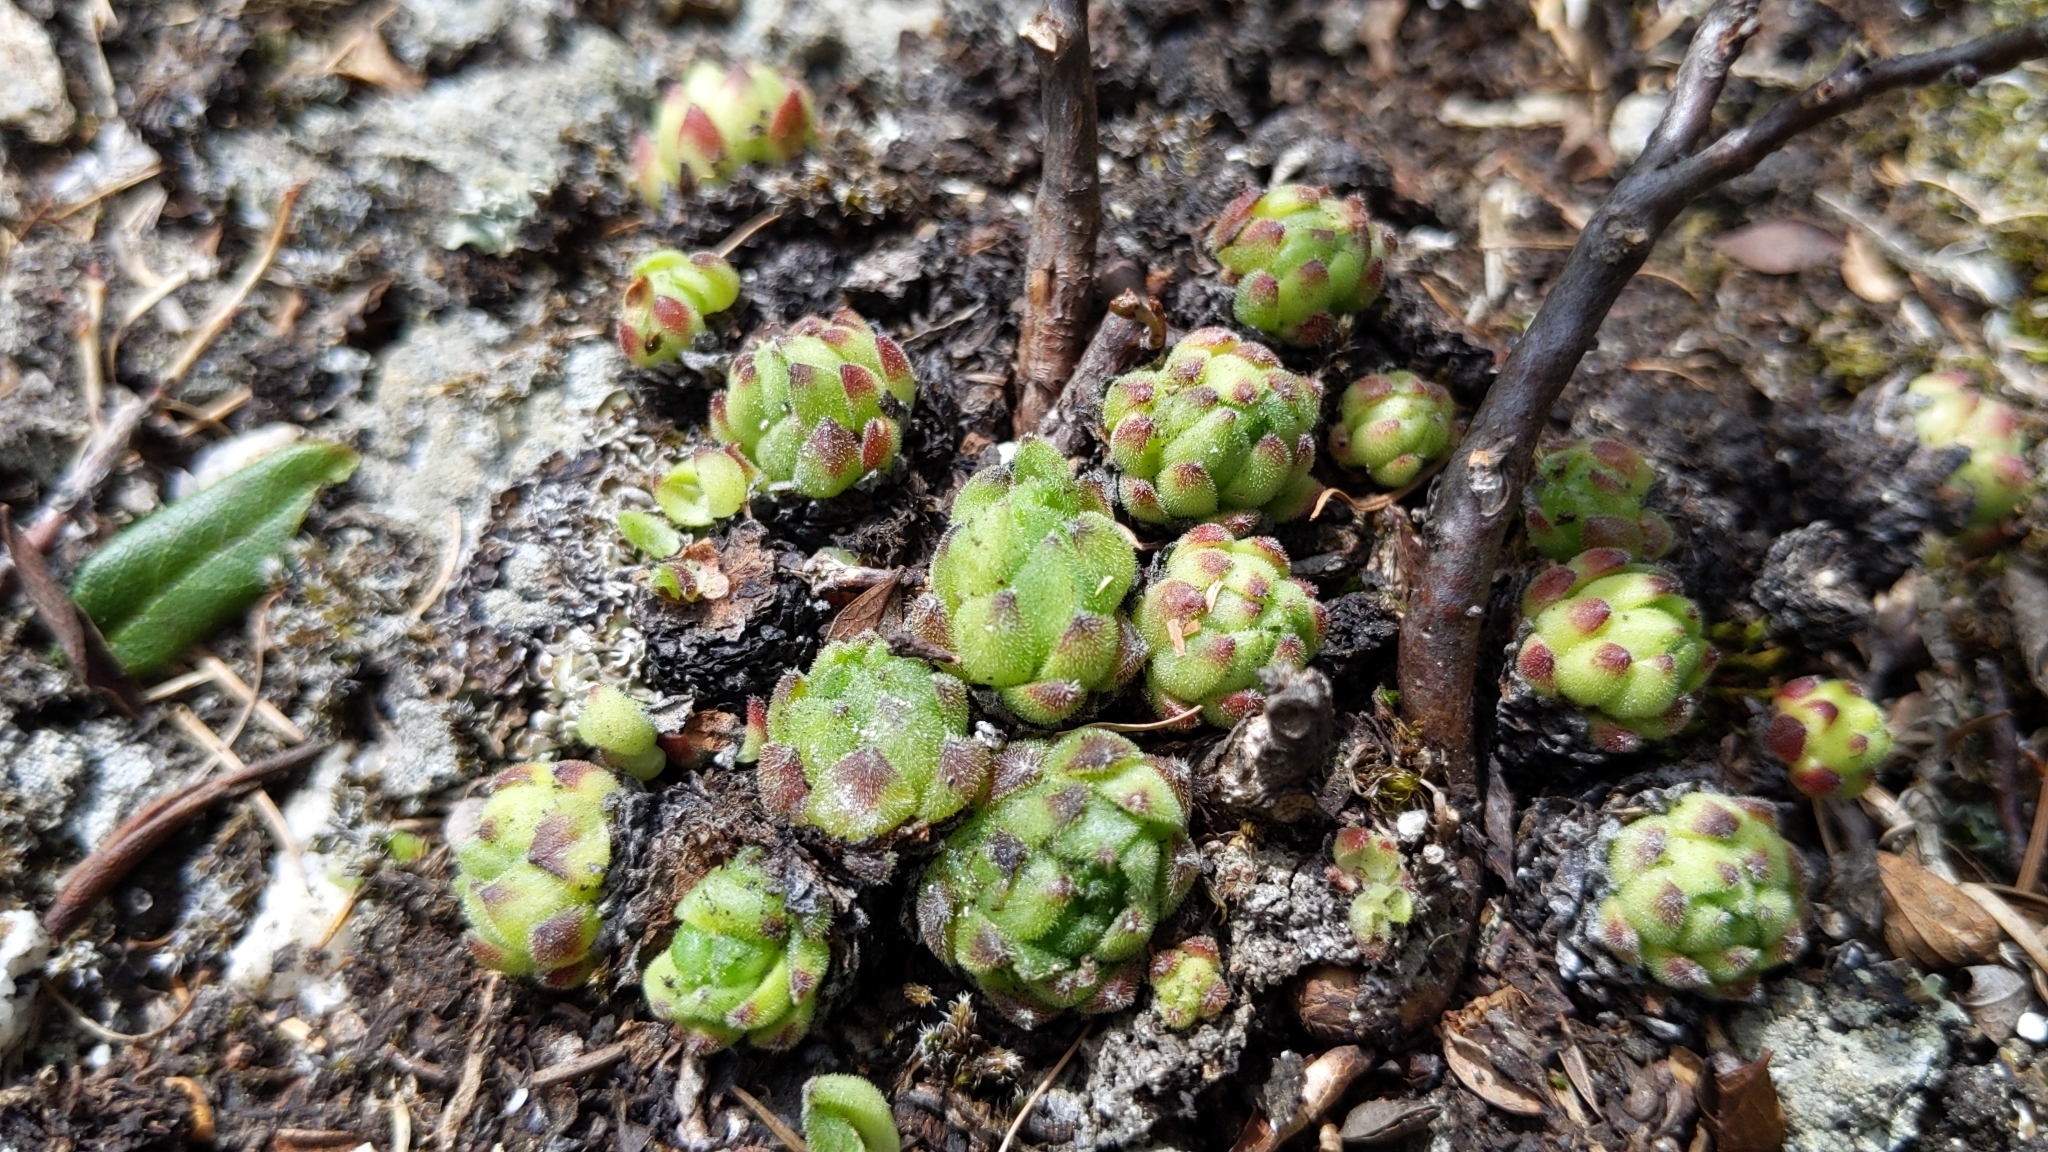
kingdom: Plantae
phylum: Tracheophyta
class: Magnoliopsida
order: Saxifragales
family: Crassulaceae
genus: Sempervivum
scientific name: Sempervivum montanum
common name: Mountain house-leek
